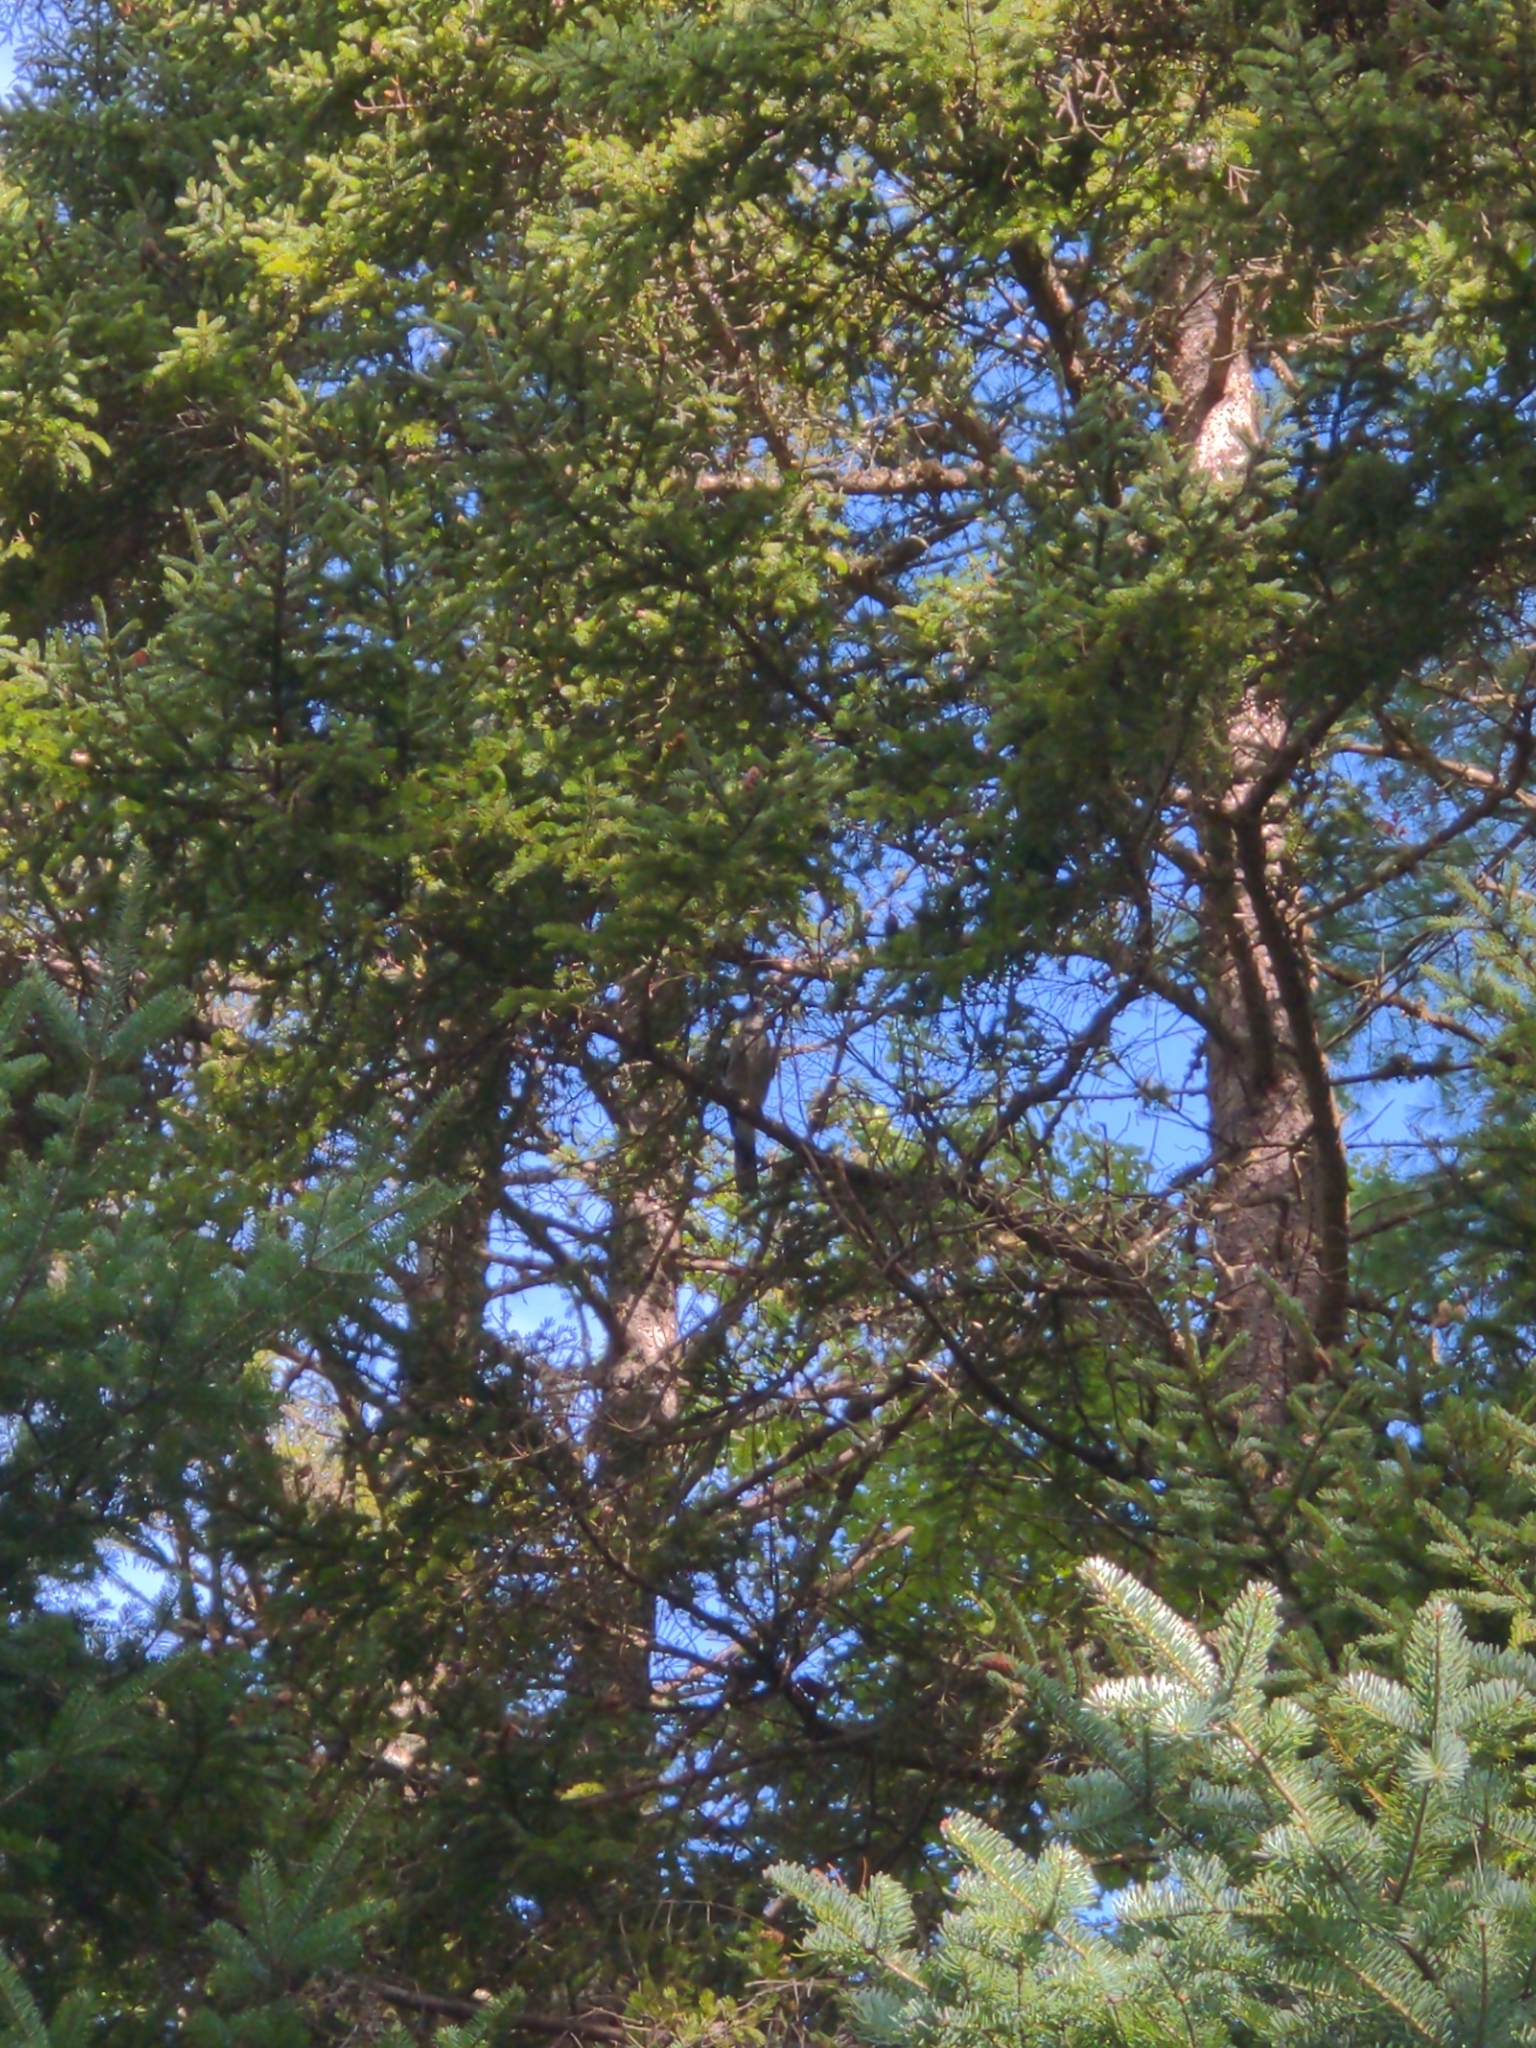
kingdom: Animalia
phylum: Chordata
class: Aves
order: Passeriformes
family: Corvidae
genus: Cyanocitta
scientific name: Cyanocitta cristata
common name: Blue jay
